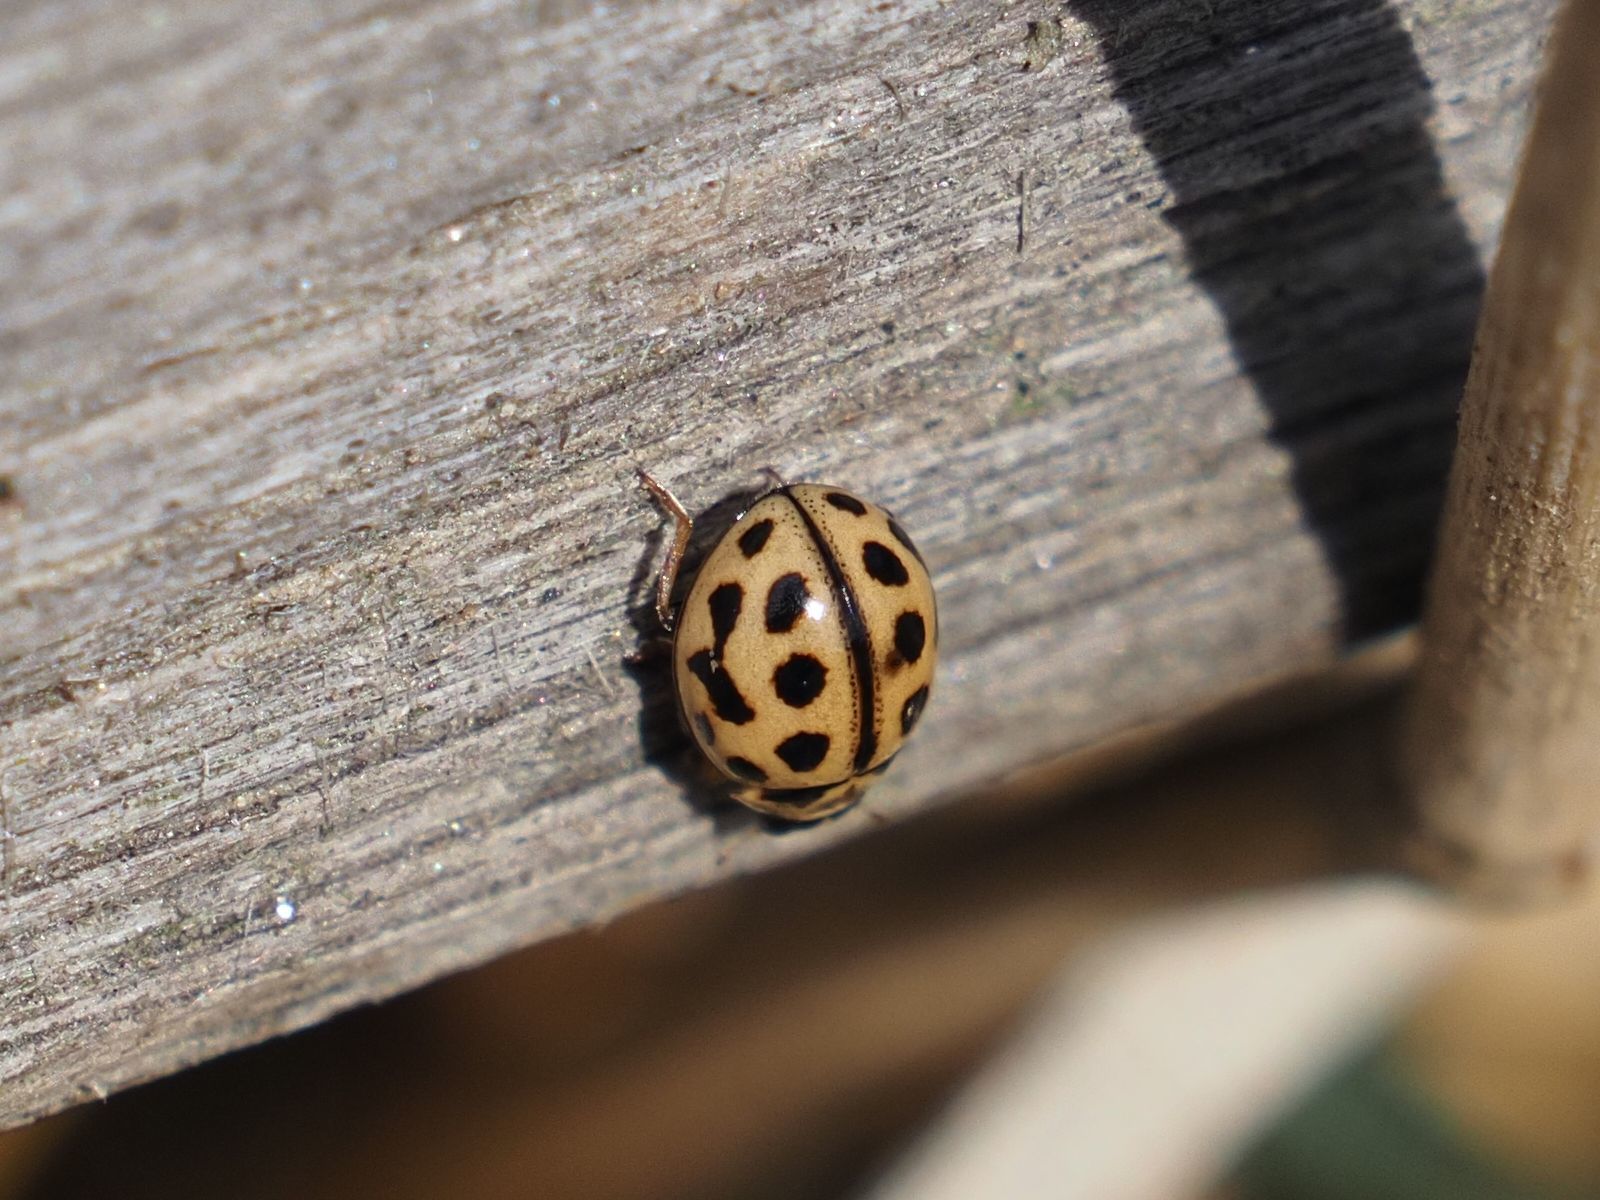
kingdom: Animalia
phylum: Arthropoda
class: Insecta
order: Coleoptera
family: Coccinellidae
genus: Tytthaspis
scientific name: Tytthaspis sedecimpunctata
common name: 16-spot ladybird
